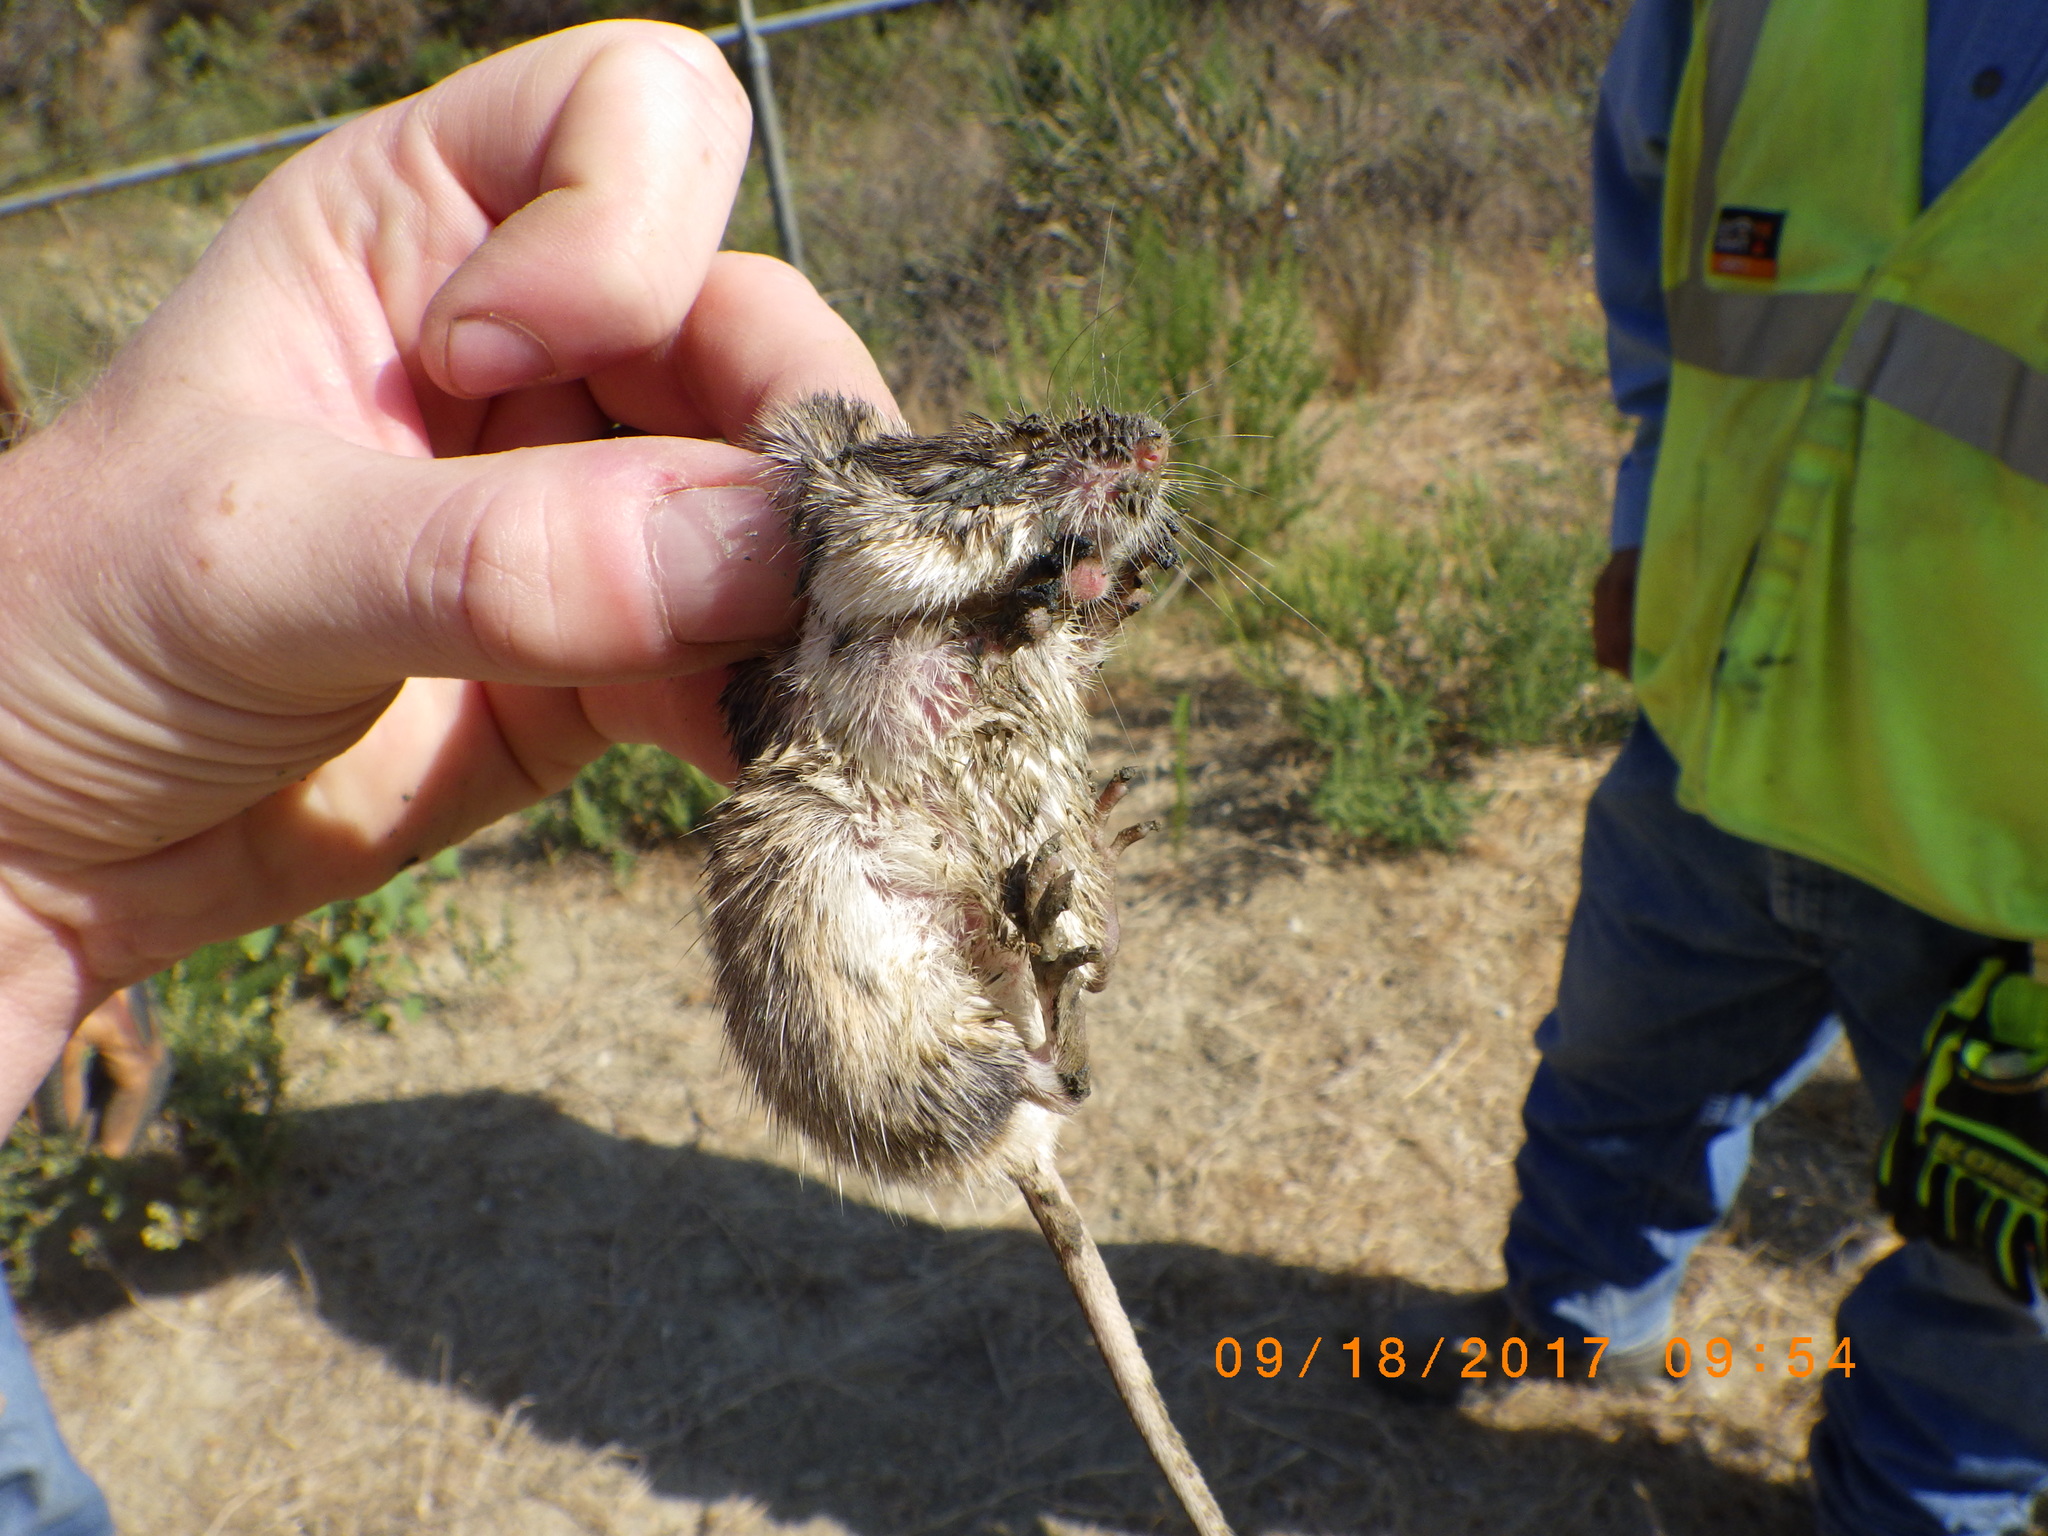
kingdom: Animalia
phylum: Chordata
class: Mammalia
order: Rodentia
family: Heteromyidae
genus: Chaetodipus
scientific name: Chaetodipus californicus
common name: California pocket mouse
